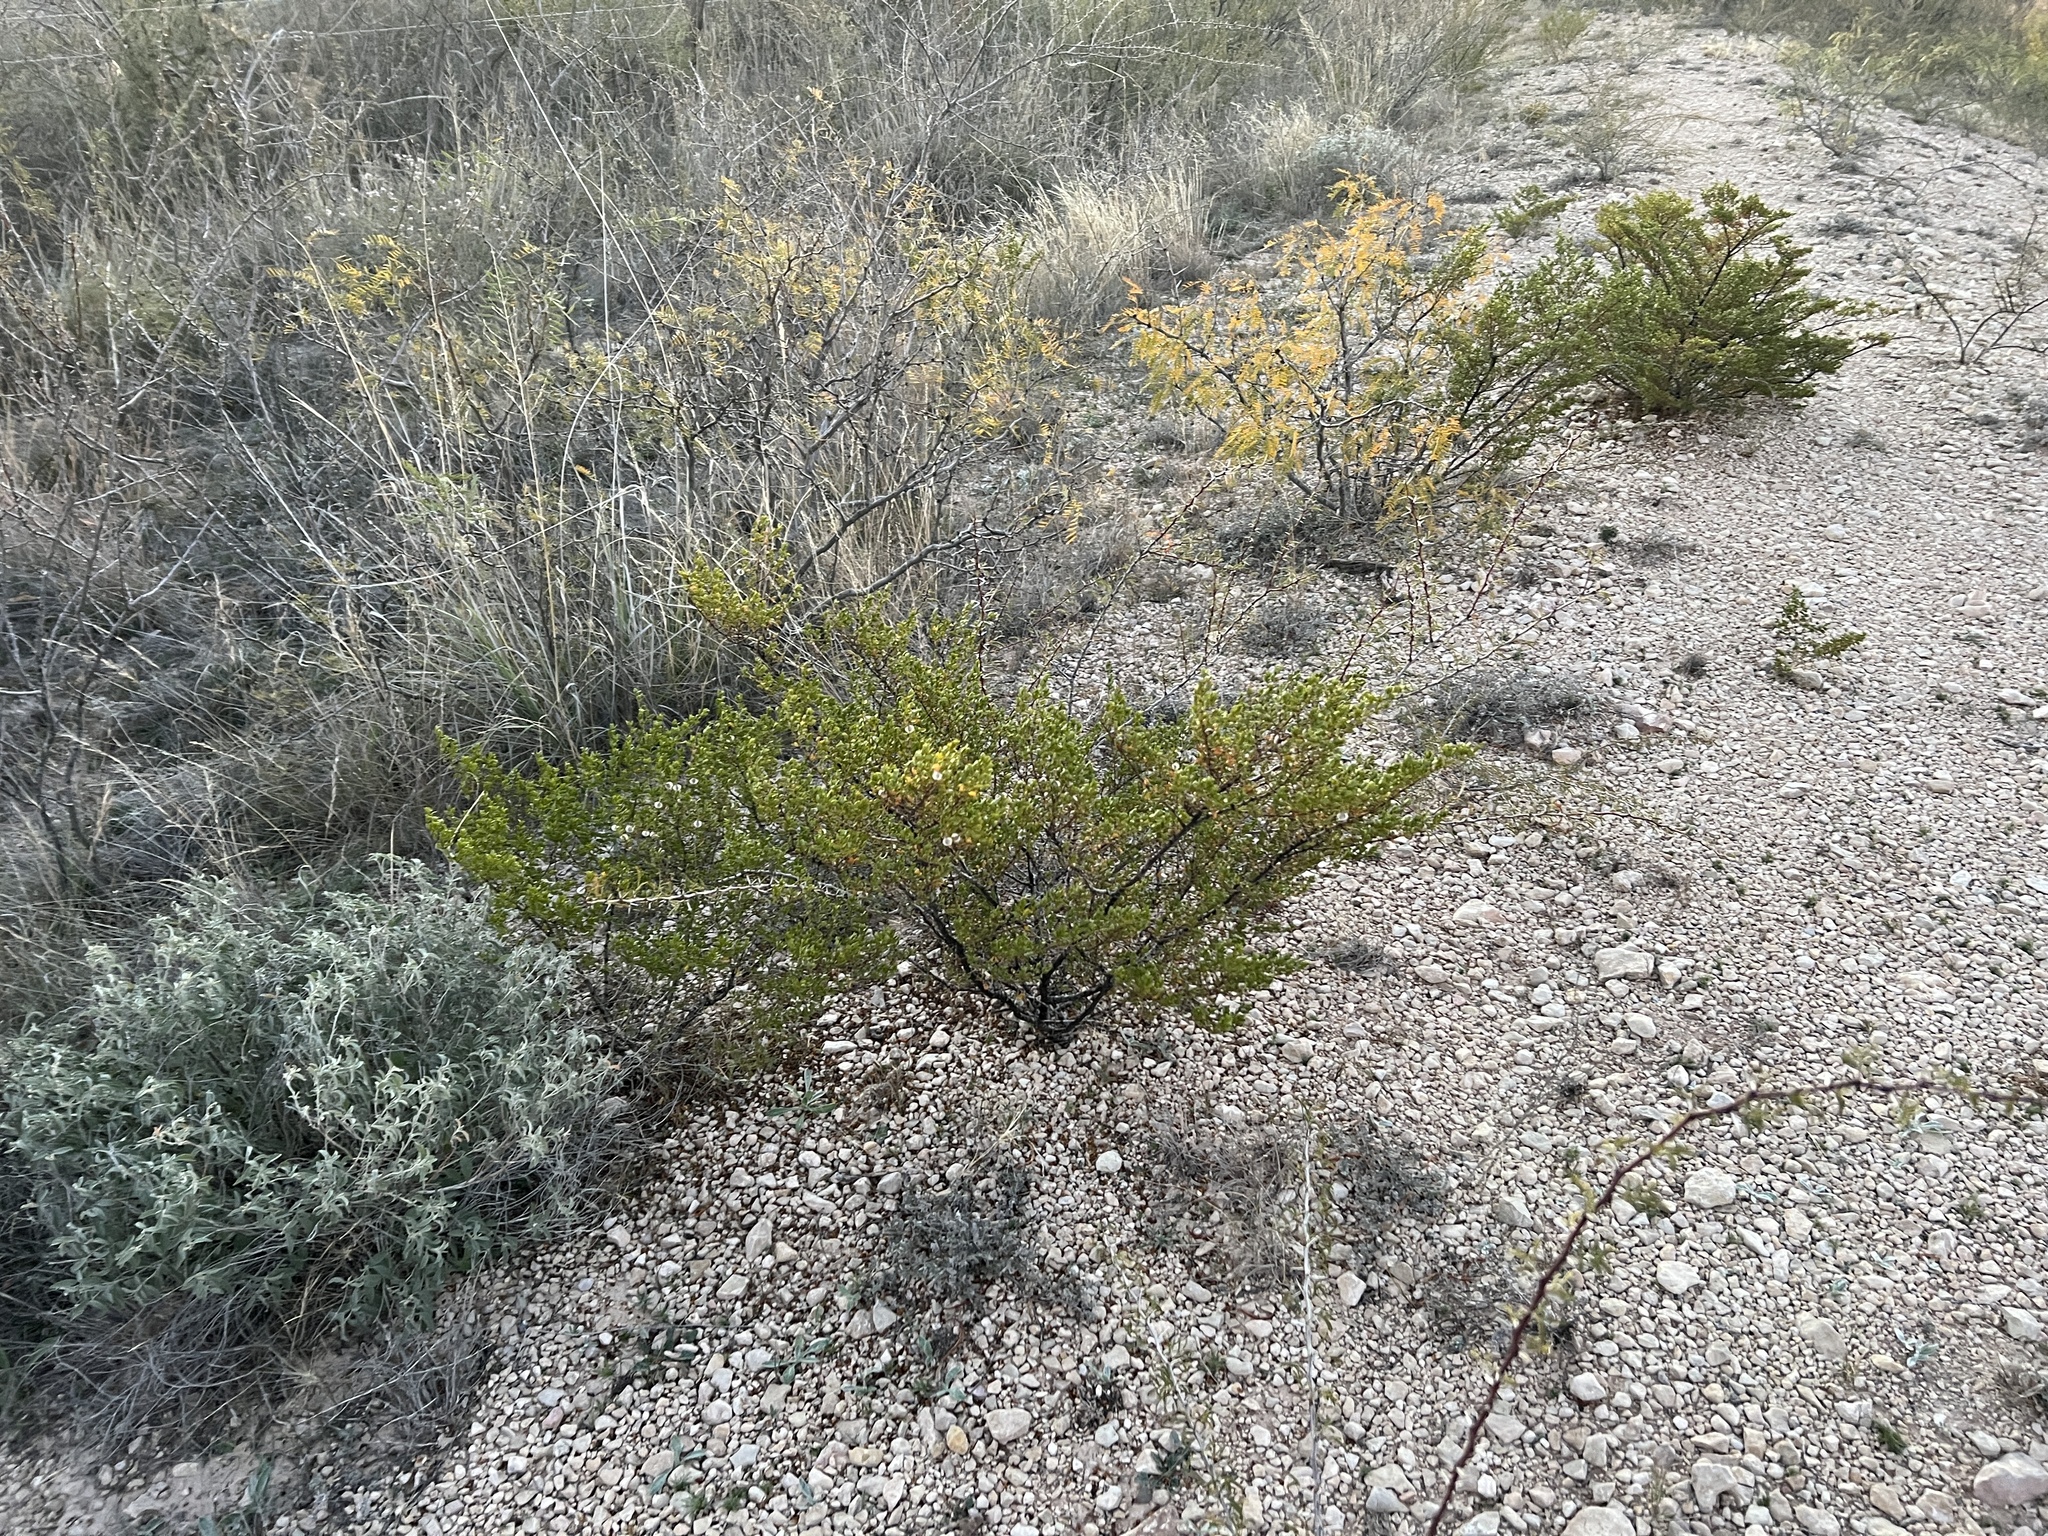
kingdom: Plantae
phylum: Tracheophyta
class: Magnoliopsida
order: Zygophyllales
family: Zygophyllaceae
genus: Larrea
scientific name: Larrea tridentata
